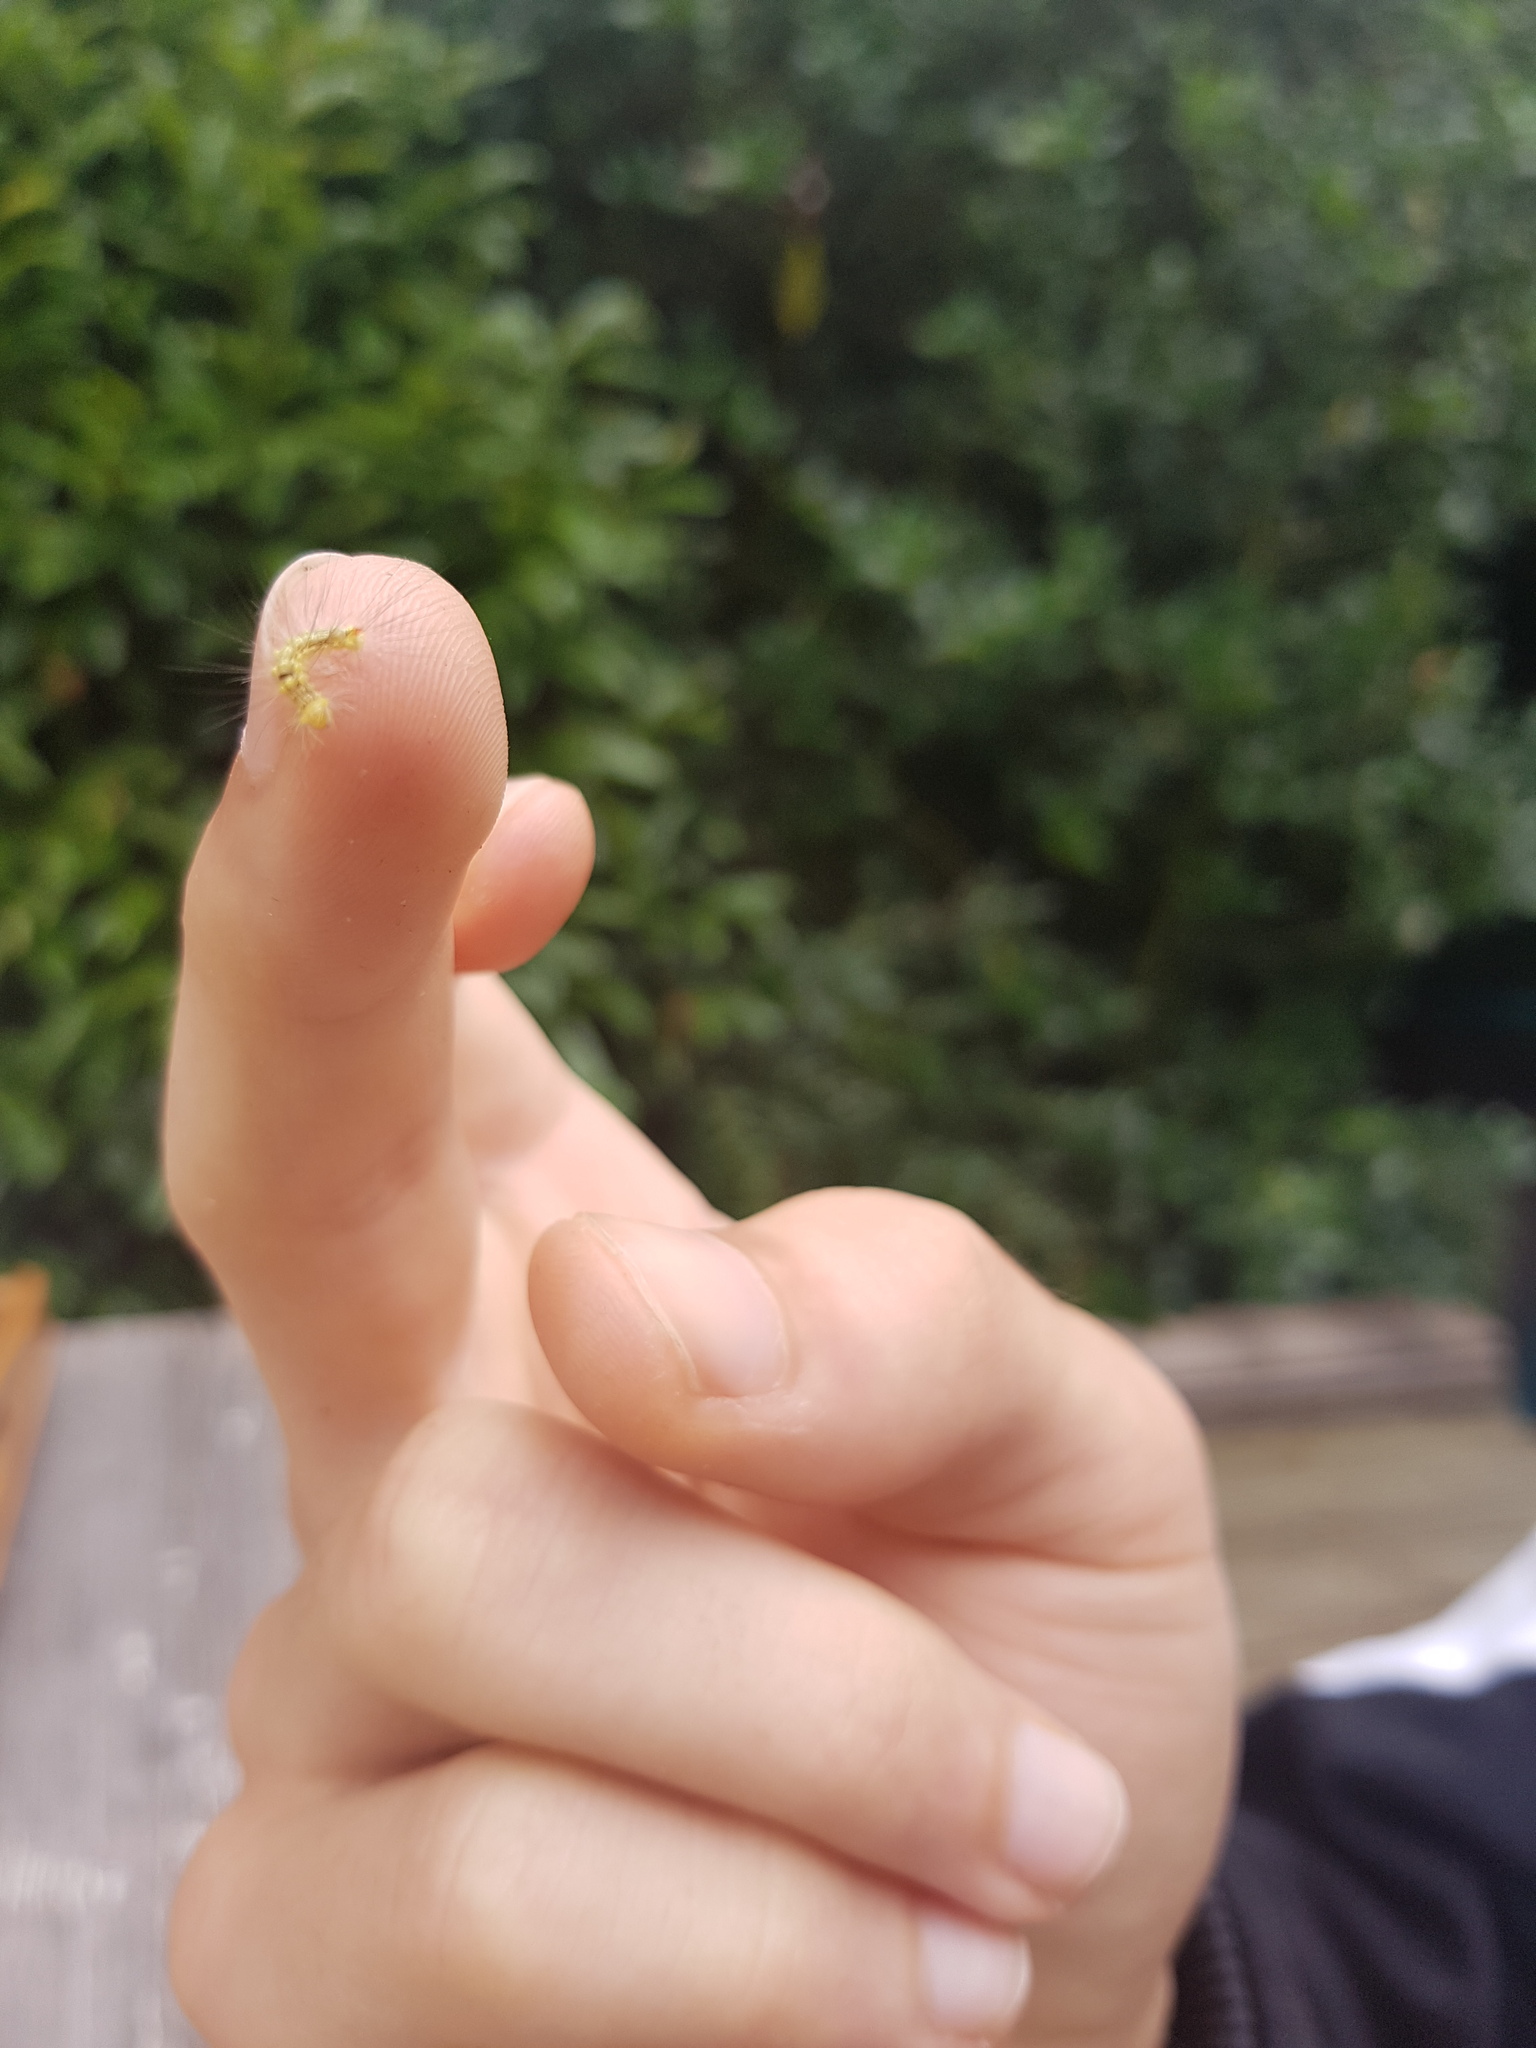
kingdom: Animalia
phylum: Arthropoda
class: Insecta
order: Lepidoptera
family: Erebidae
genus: Calliteara
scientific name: Calliteara pudibunda
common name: Pale tussock
